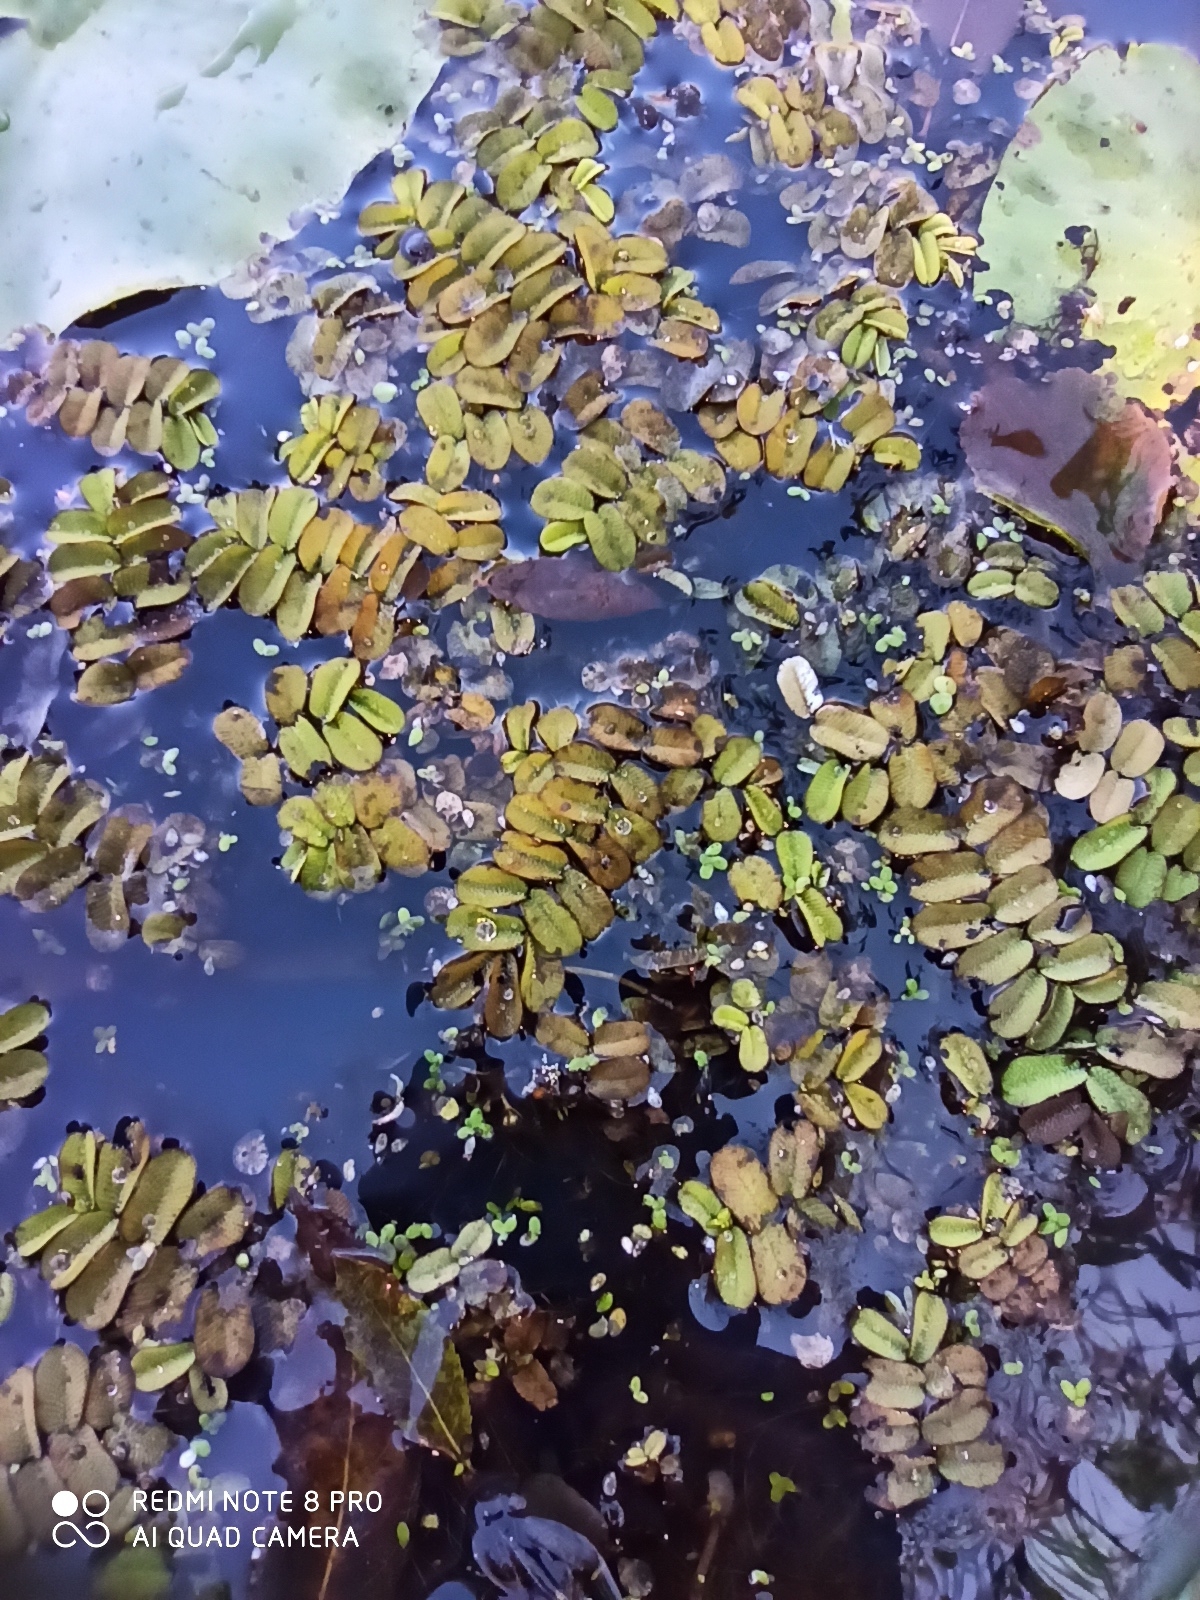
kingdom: Plantae
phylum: Tracheophyta
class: Polypodiopsida
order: Salviniales
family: Salviniaceae
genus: Salvinia
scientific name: Salvinia natans
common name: Floating fern
